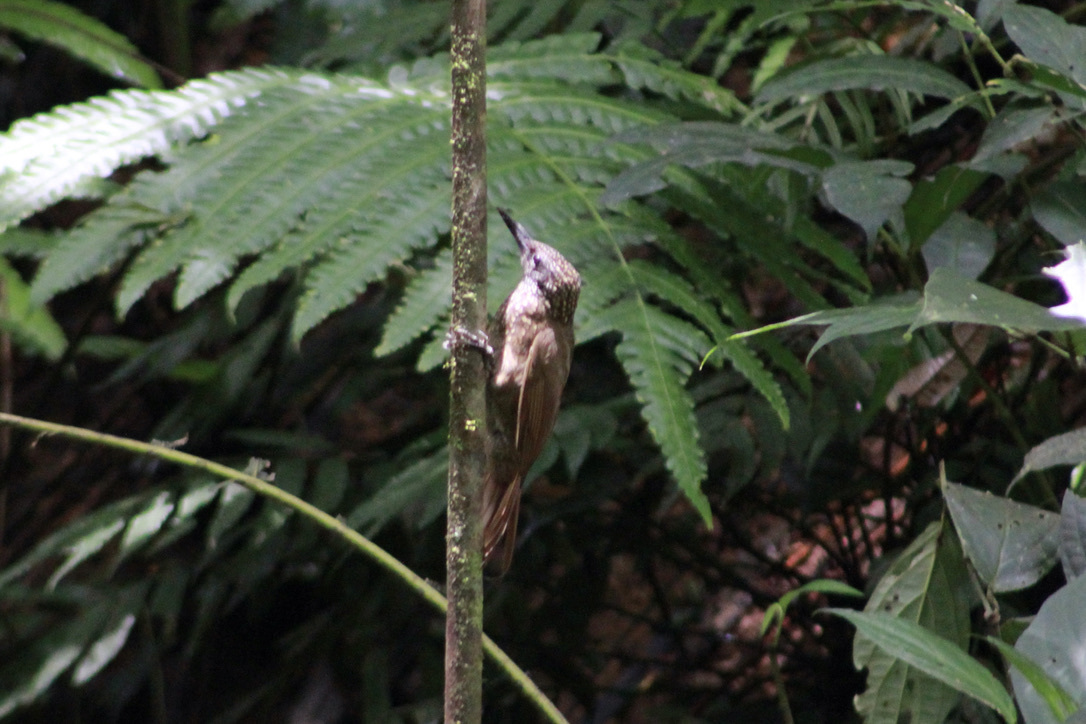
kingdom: Animalia
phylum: Chordata
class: Aves
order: Passeriformes
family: Furnariidae
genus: Xiphorhynchus
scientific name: Xiphorhynchus susurrans
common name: Cocoa woodcreeper
